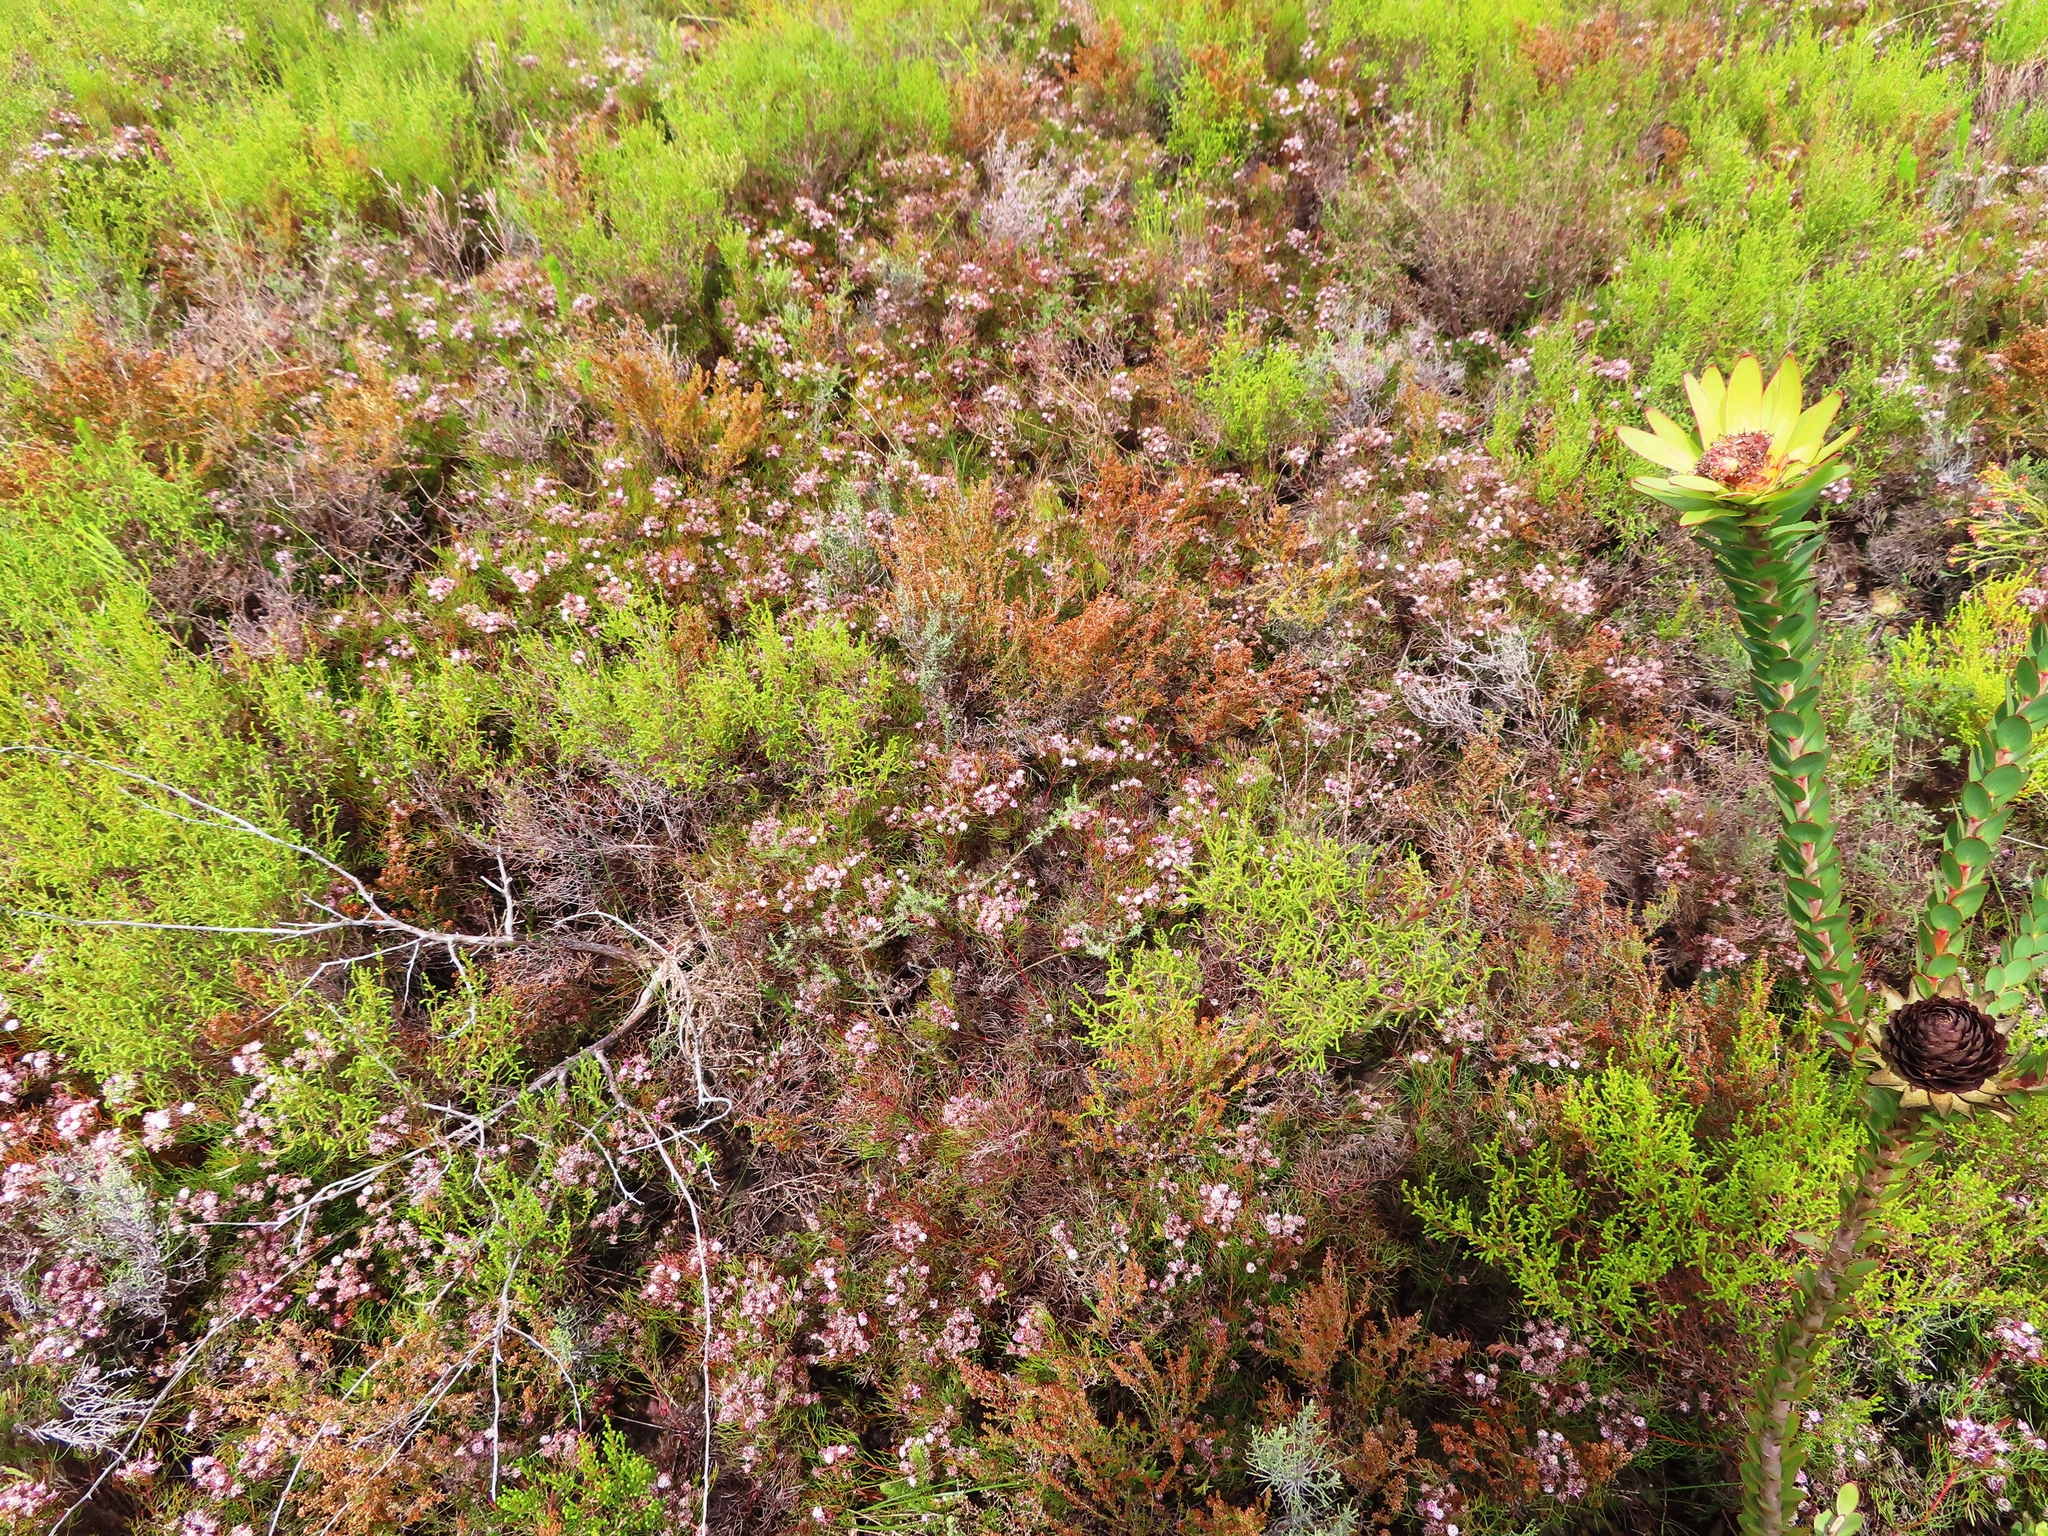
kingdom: Plantae
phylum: Tracheophyta
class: Magnoliopsida
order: Proteales
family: Proteaceae
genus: Serruria
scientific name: Serruria fasciflora
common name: Common pin spiderhead
